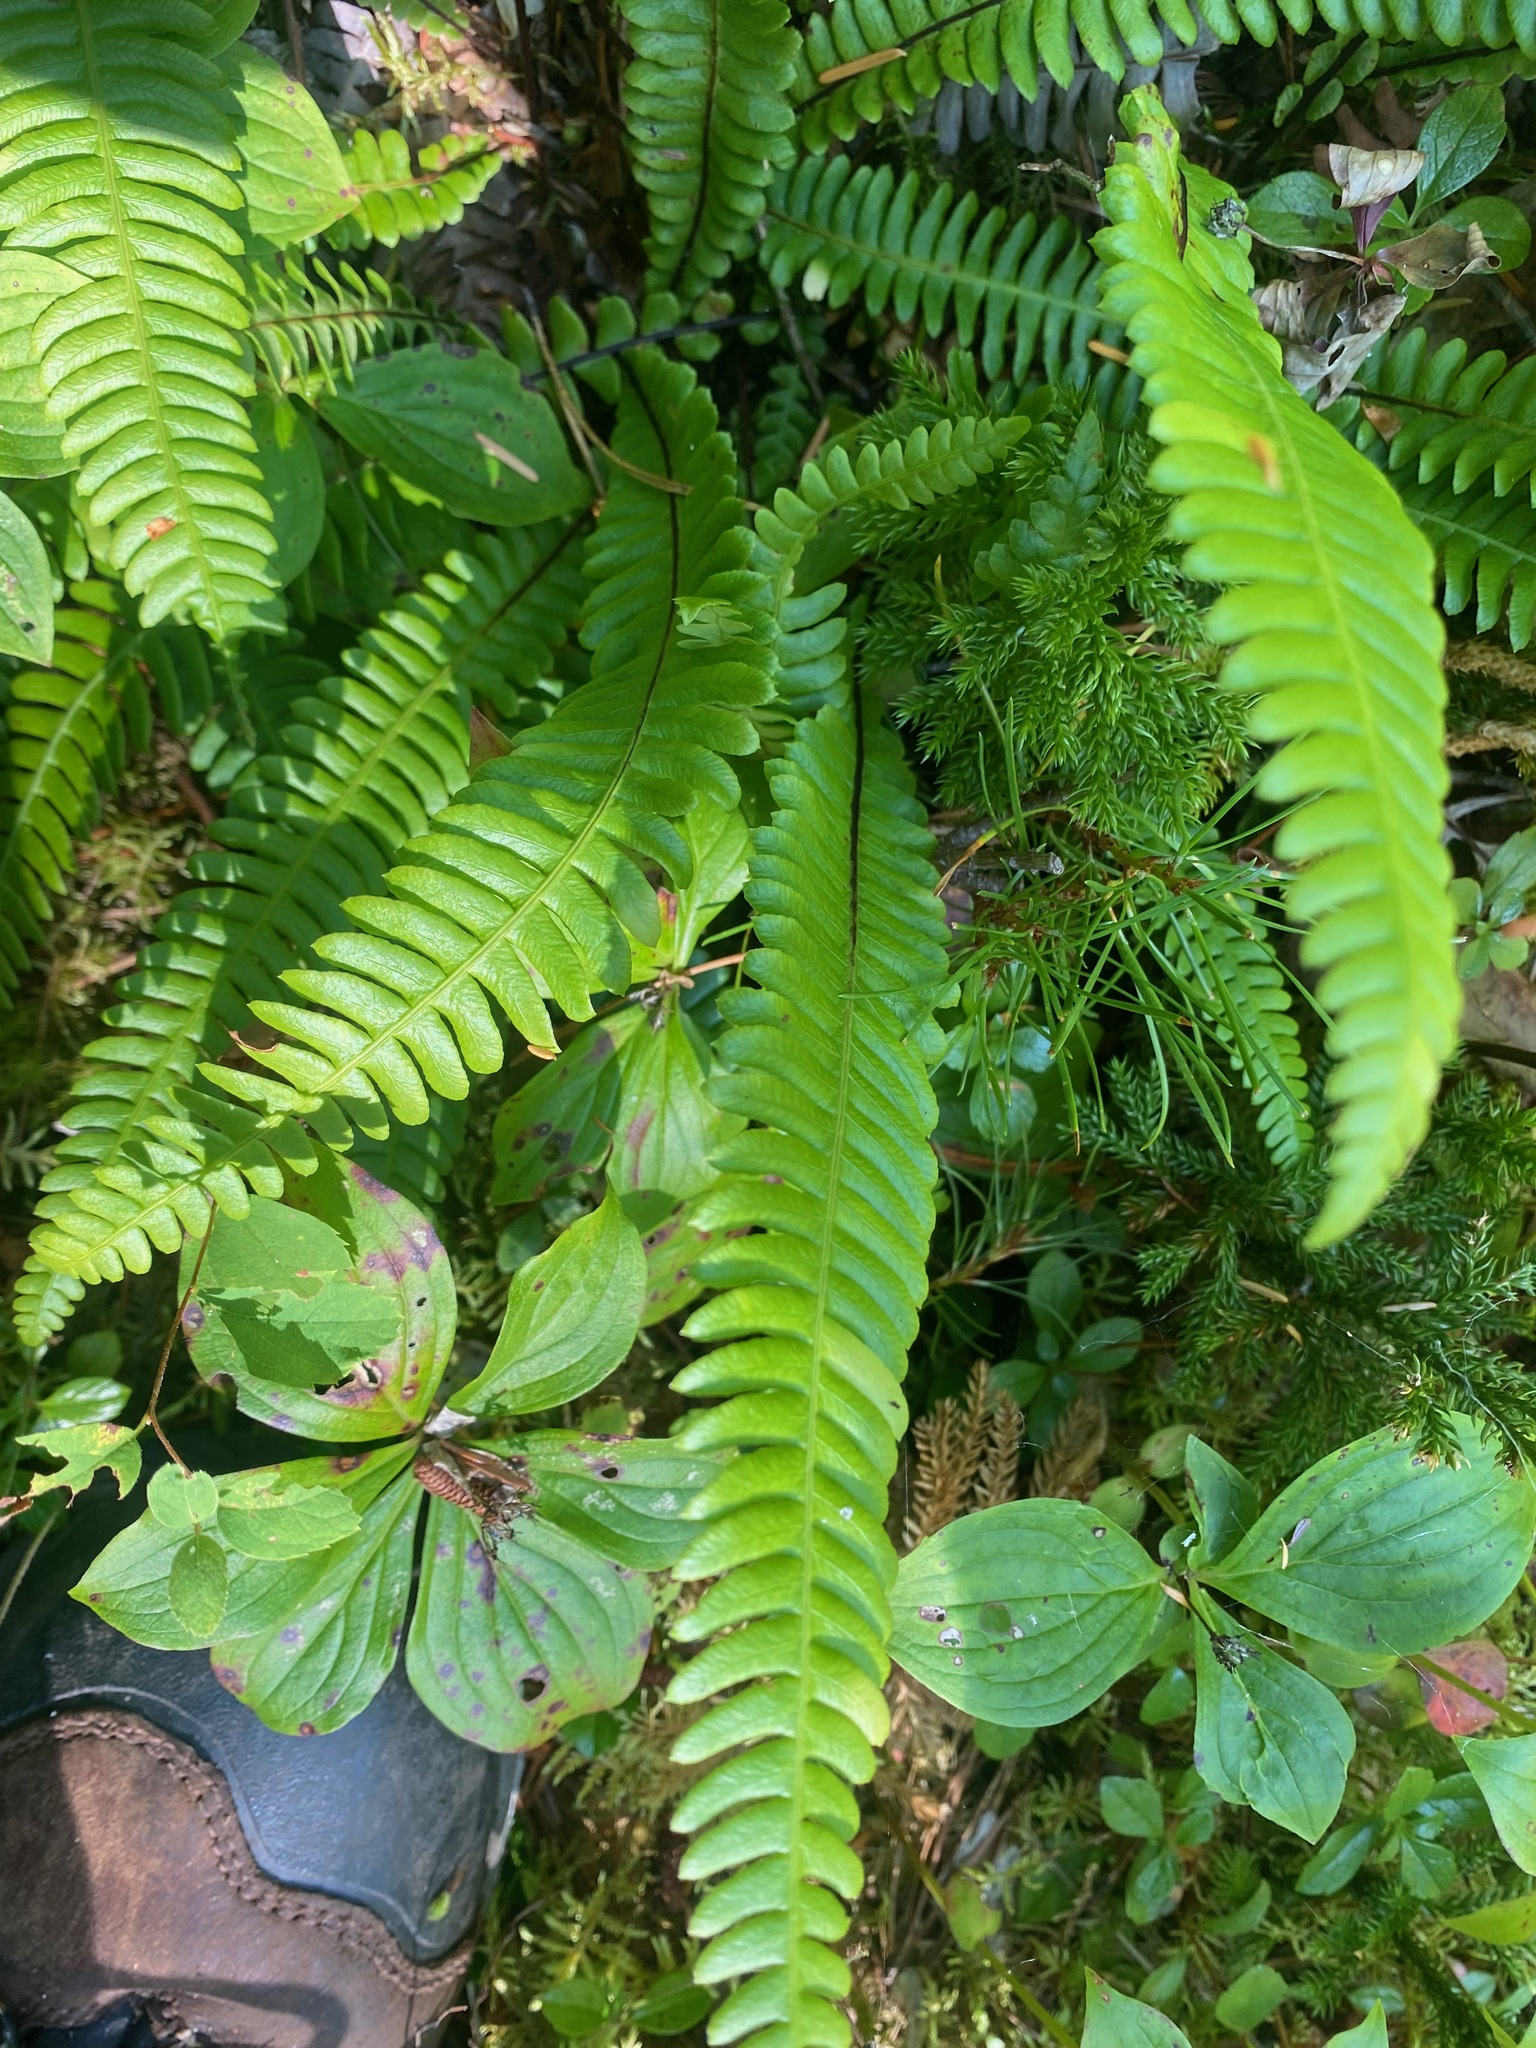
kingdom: Plantae
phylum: Tracheophyta
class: Polypodiopsida
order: Polypodiales
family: Blechnaceae
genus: Struthiopteris
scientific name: Struthiopteris spicant
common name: Deer fern
